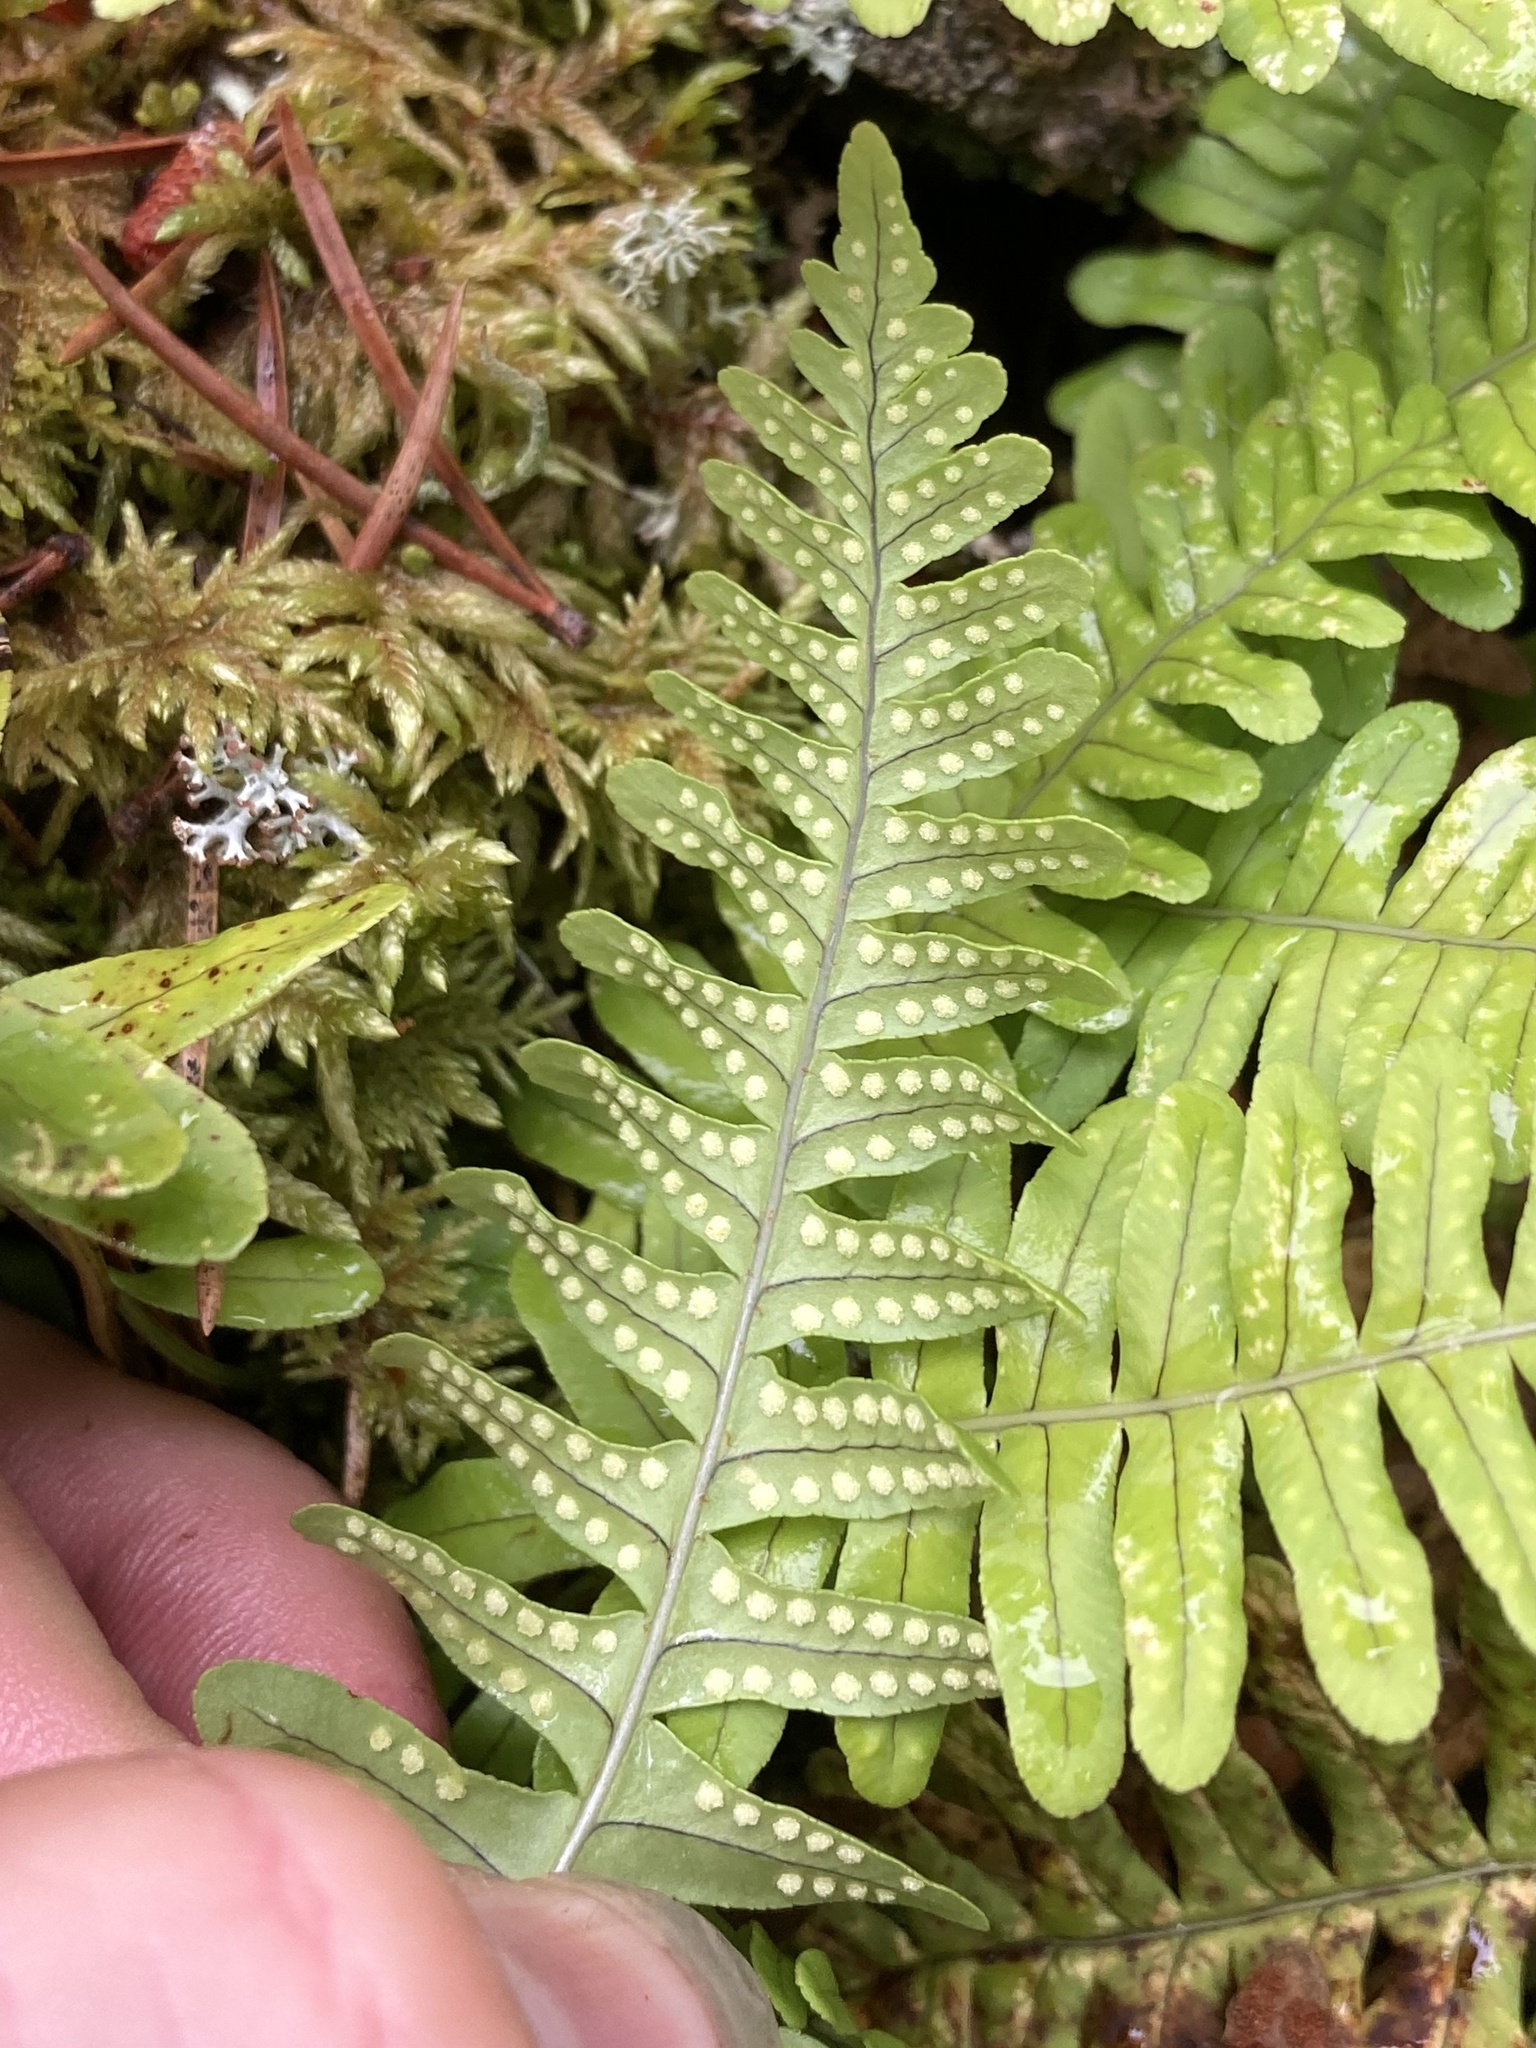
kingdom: Plantae
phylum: Tracheophyta
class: Polypodiopsida
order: Polypodiales
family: Polypodiaceae
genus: Polypodium
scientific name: Polypodium virginianum
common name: American wall fern
